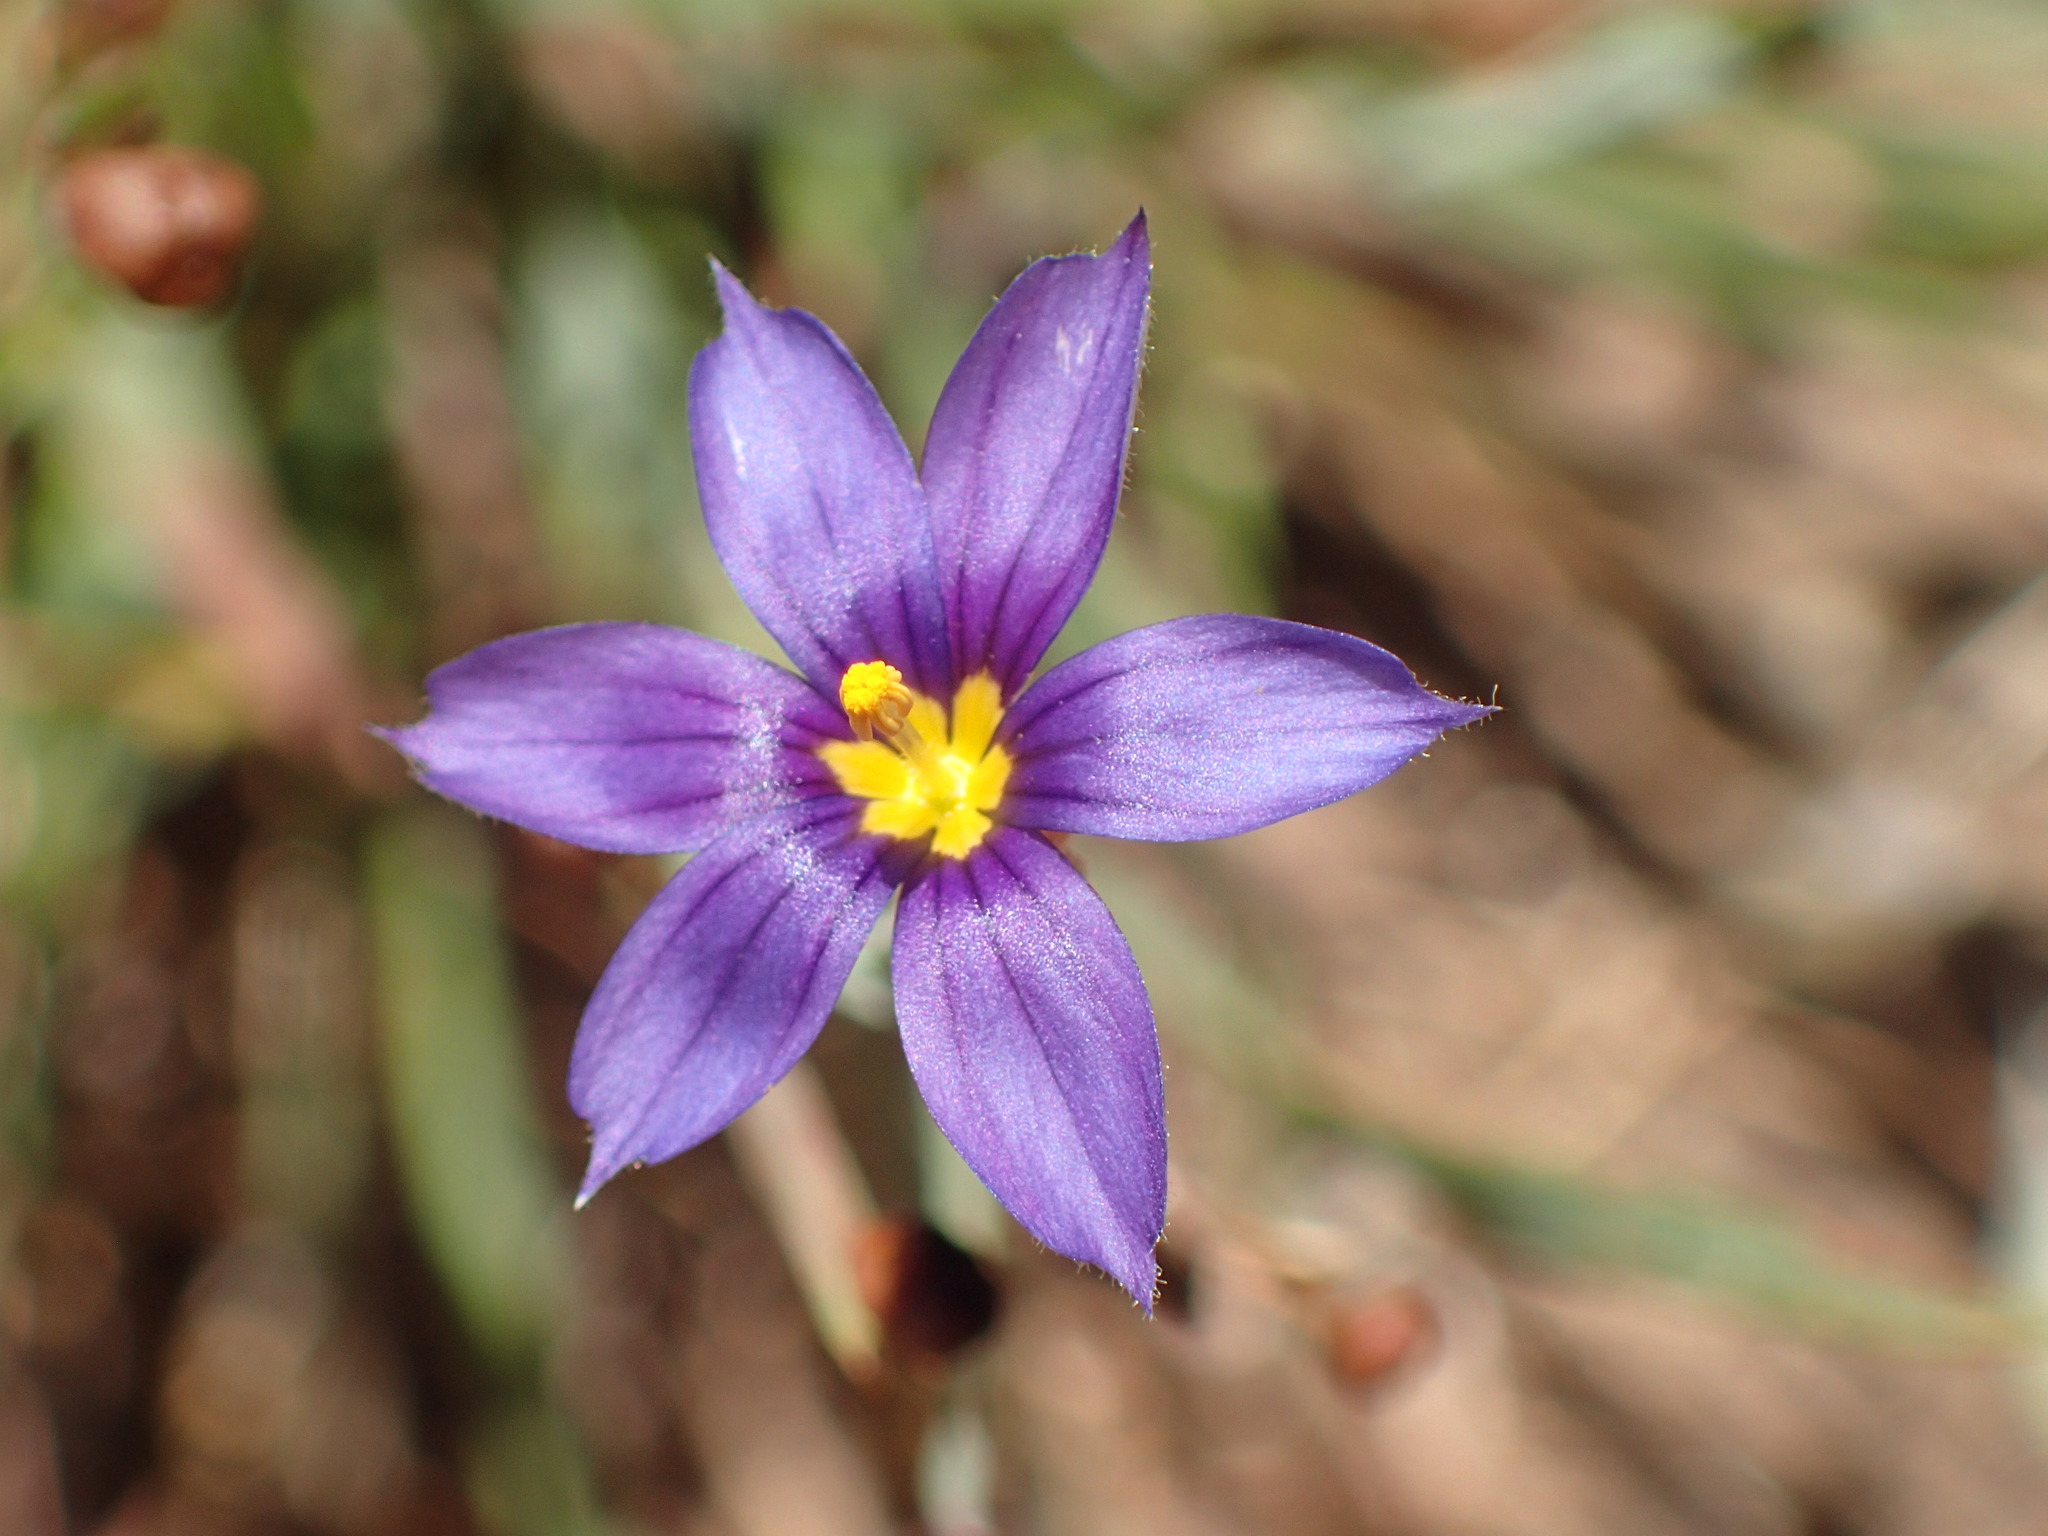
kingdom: Plantae
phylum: Tracheophyta
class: Liliopsida
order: Asparagales
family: Iridaceae
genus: Sisyrinchium
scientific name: Sisyrinchium bellum
